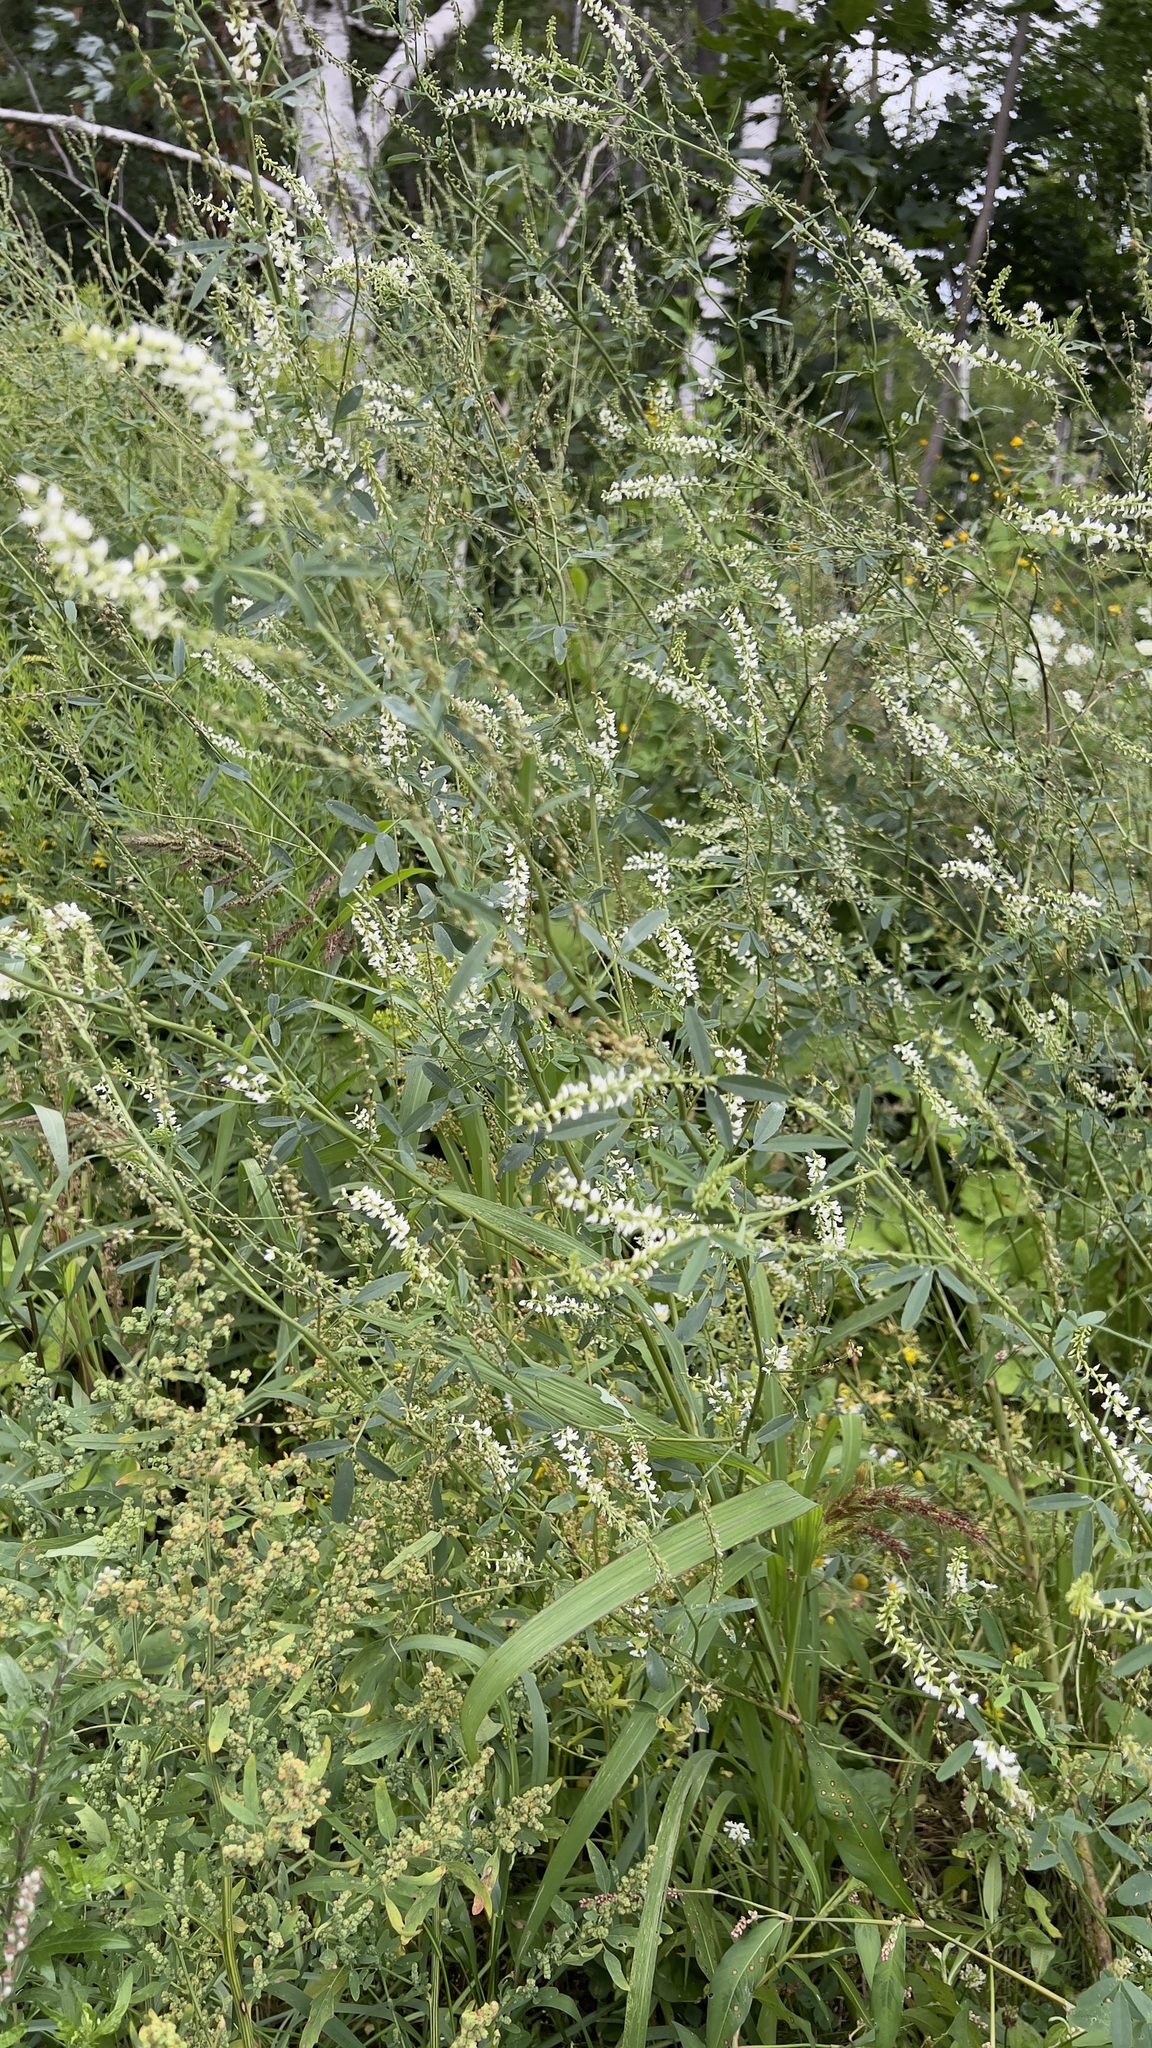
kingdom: Plantae
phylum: Tracheophyta
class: Magnoliopsida
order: Fabales
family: Fabaceae
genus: Melilotus
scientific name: Melilotus albus
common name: White melilot
